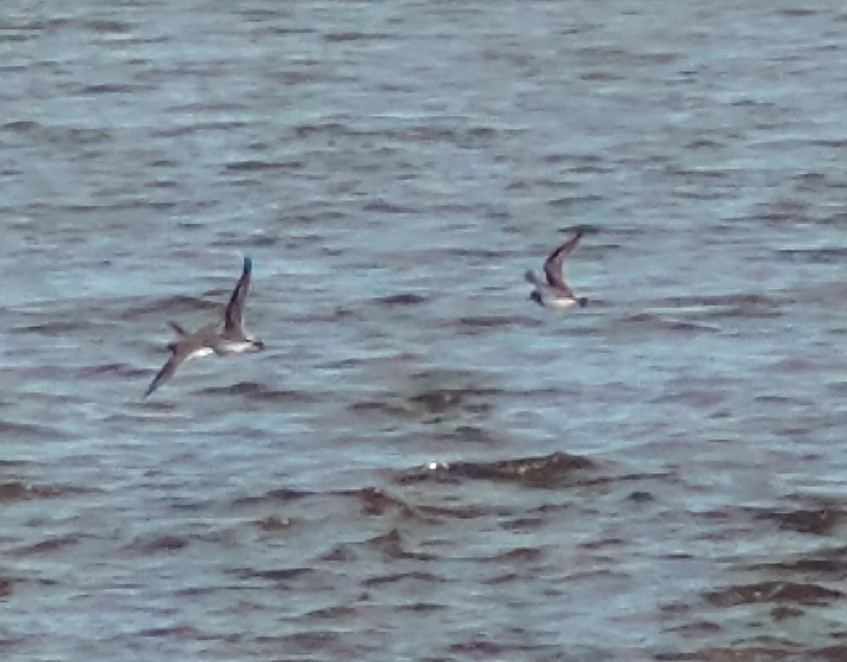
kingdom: Animalia
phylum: Chordata
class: Aves
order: Charadriiformes
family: Charadriidae
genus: Charadrius
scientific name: Charadrius modestus
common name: Rufous-chested plover
